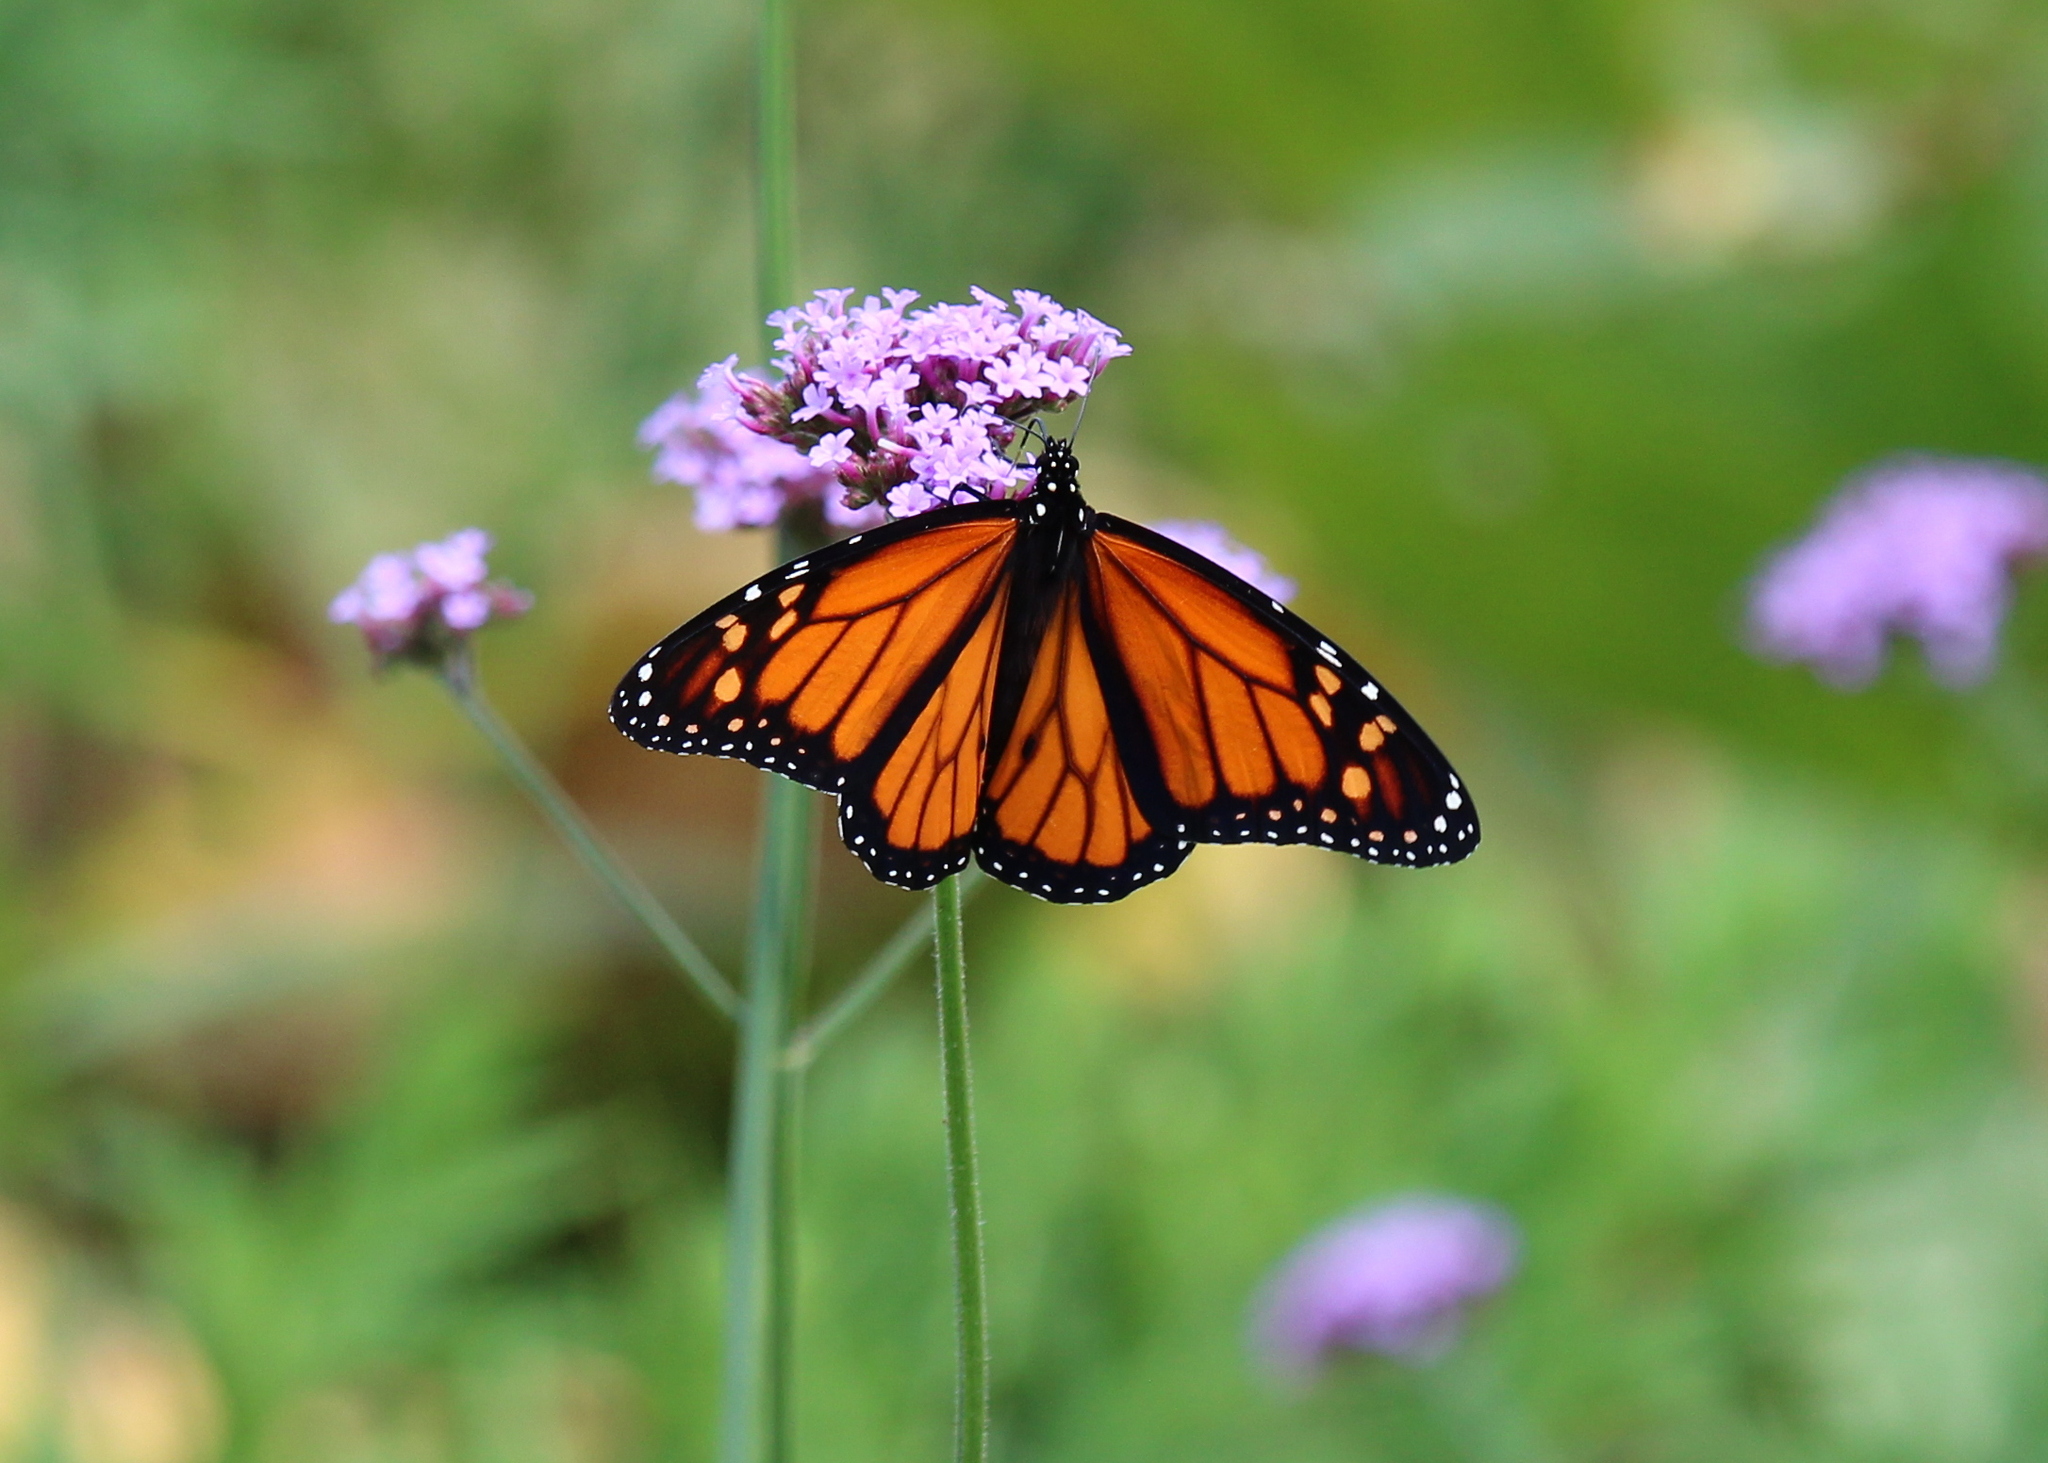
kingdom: Animalia
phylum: Arthropoda
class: Insecta
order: Lepidoptera
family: Nymphalidae
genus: Danaus
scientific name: Danaus plexippus
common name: Monarch
